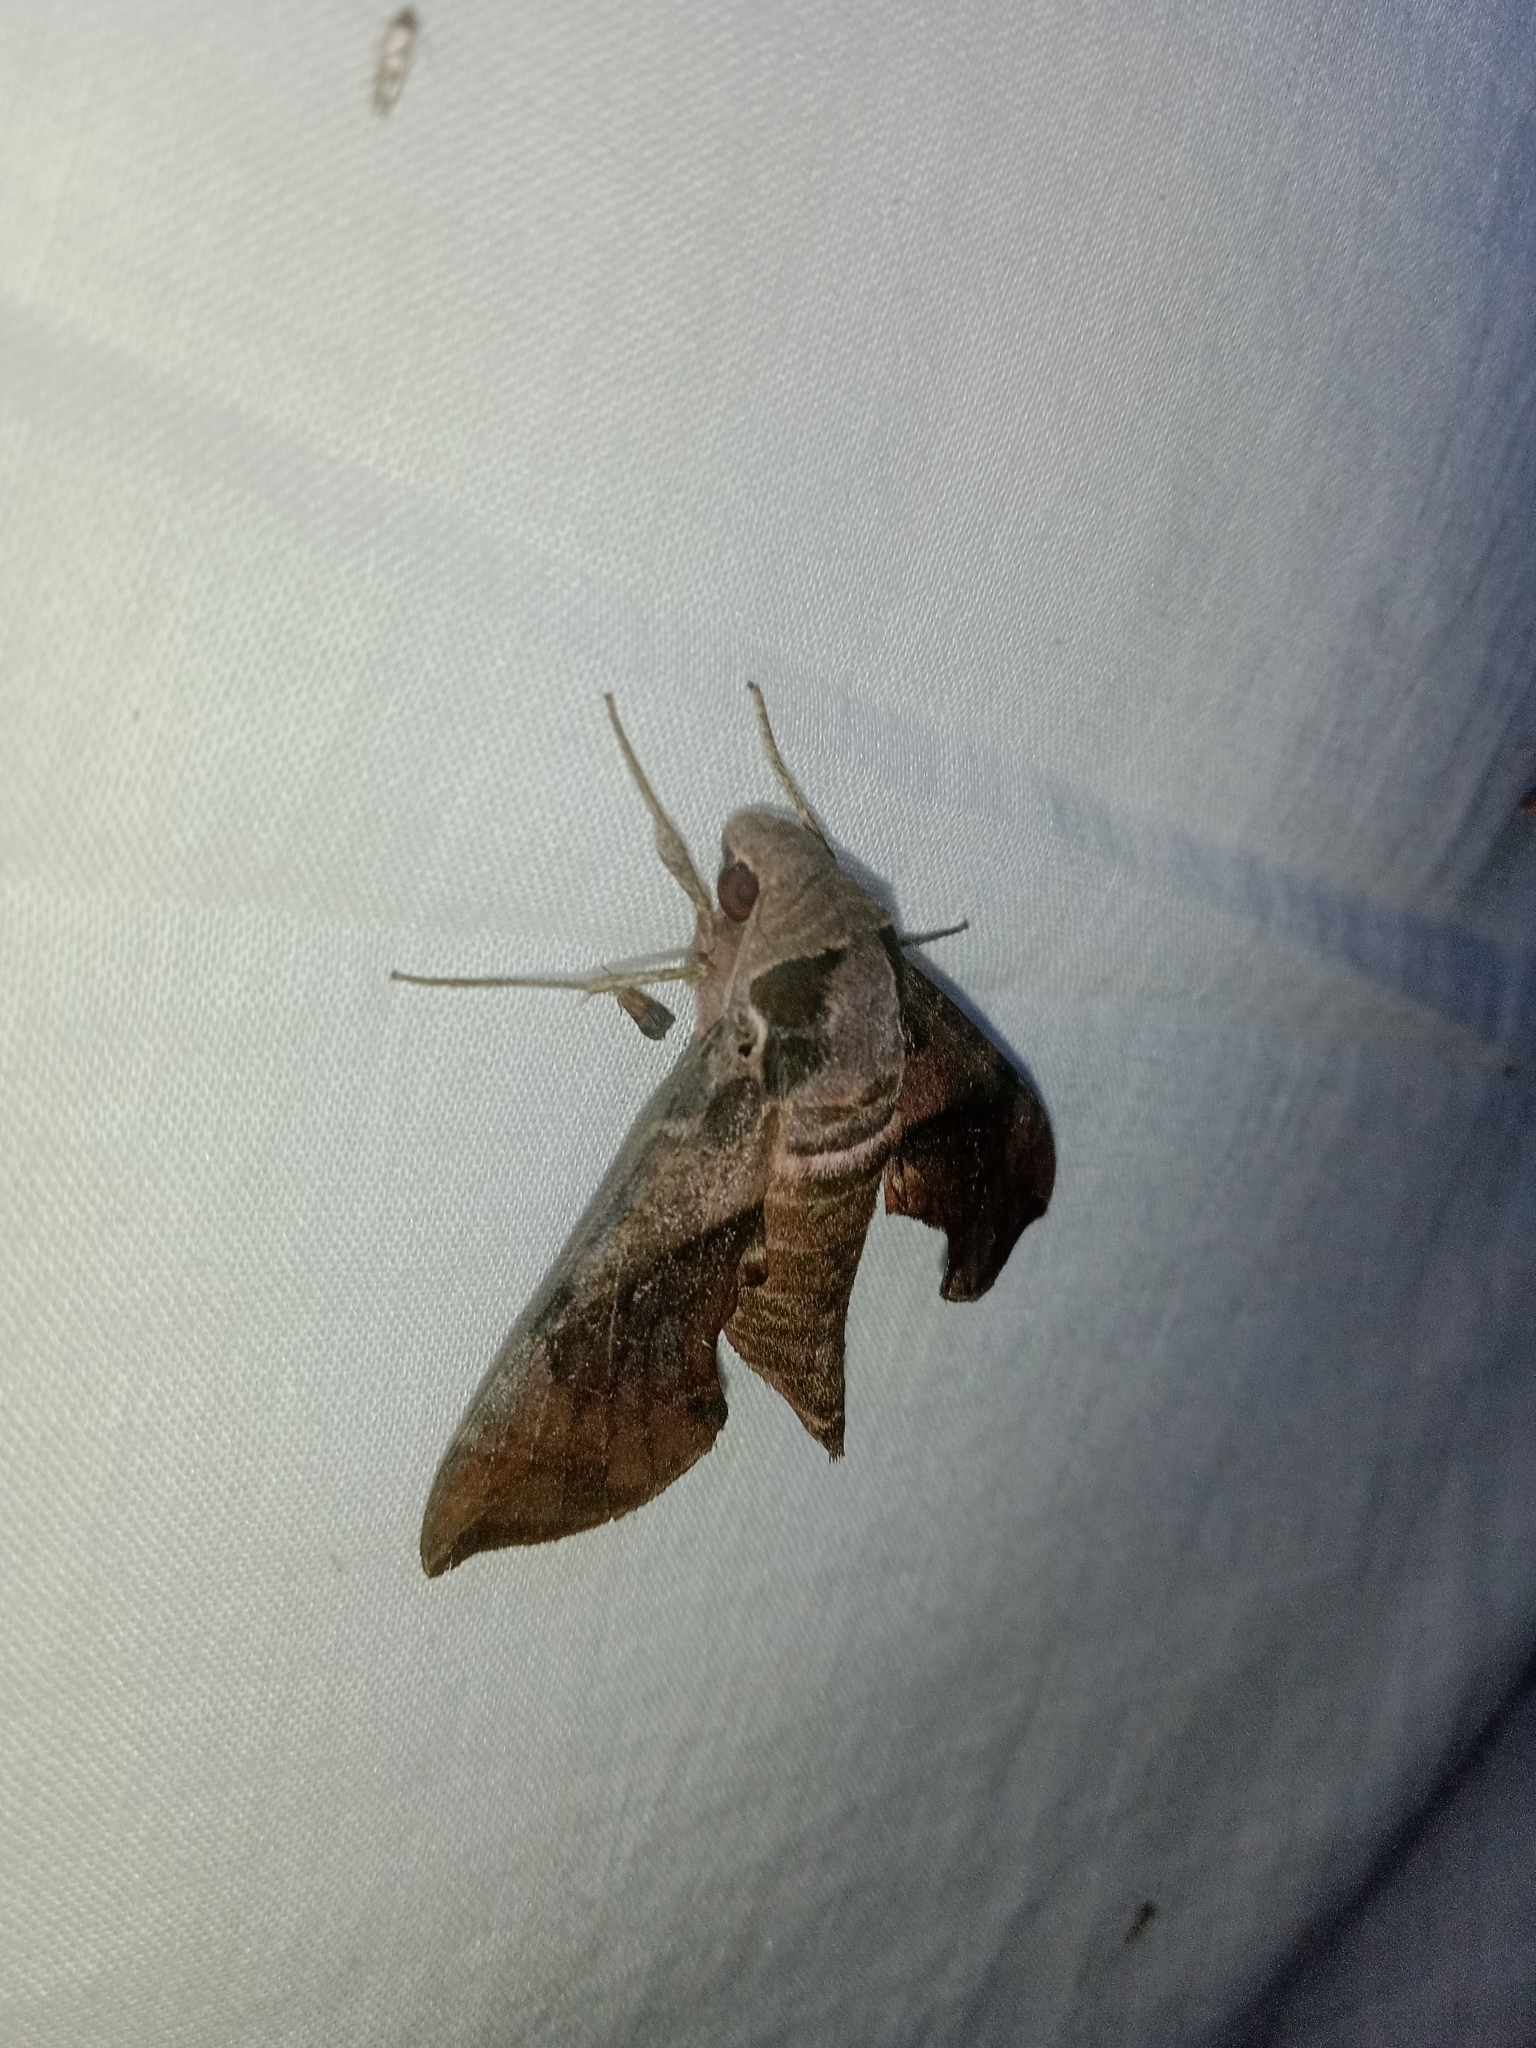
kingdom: Animalia
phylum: Arthropoda
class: Insecta
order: Lepidoptera
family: Sphingidae
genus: Daphnis
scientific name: Daphnis minima
